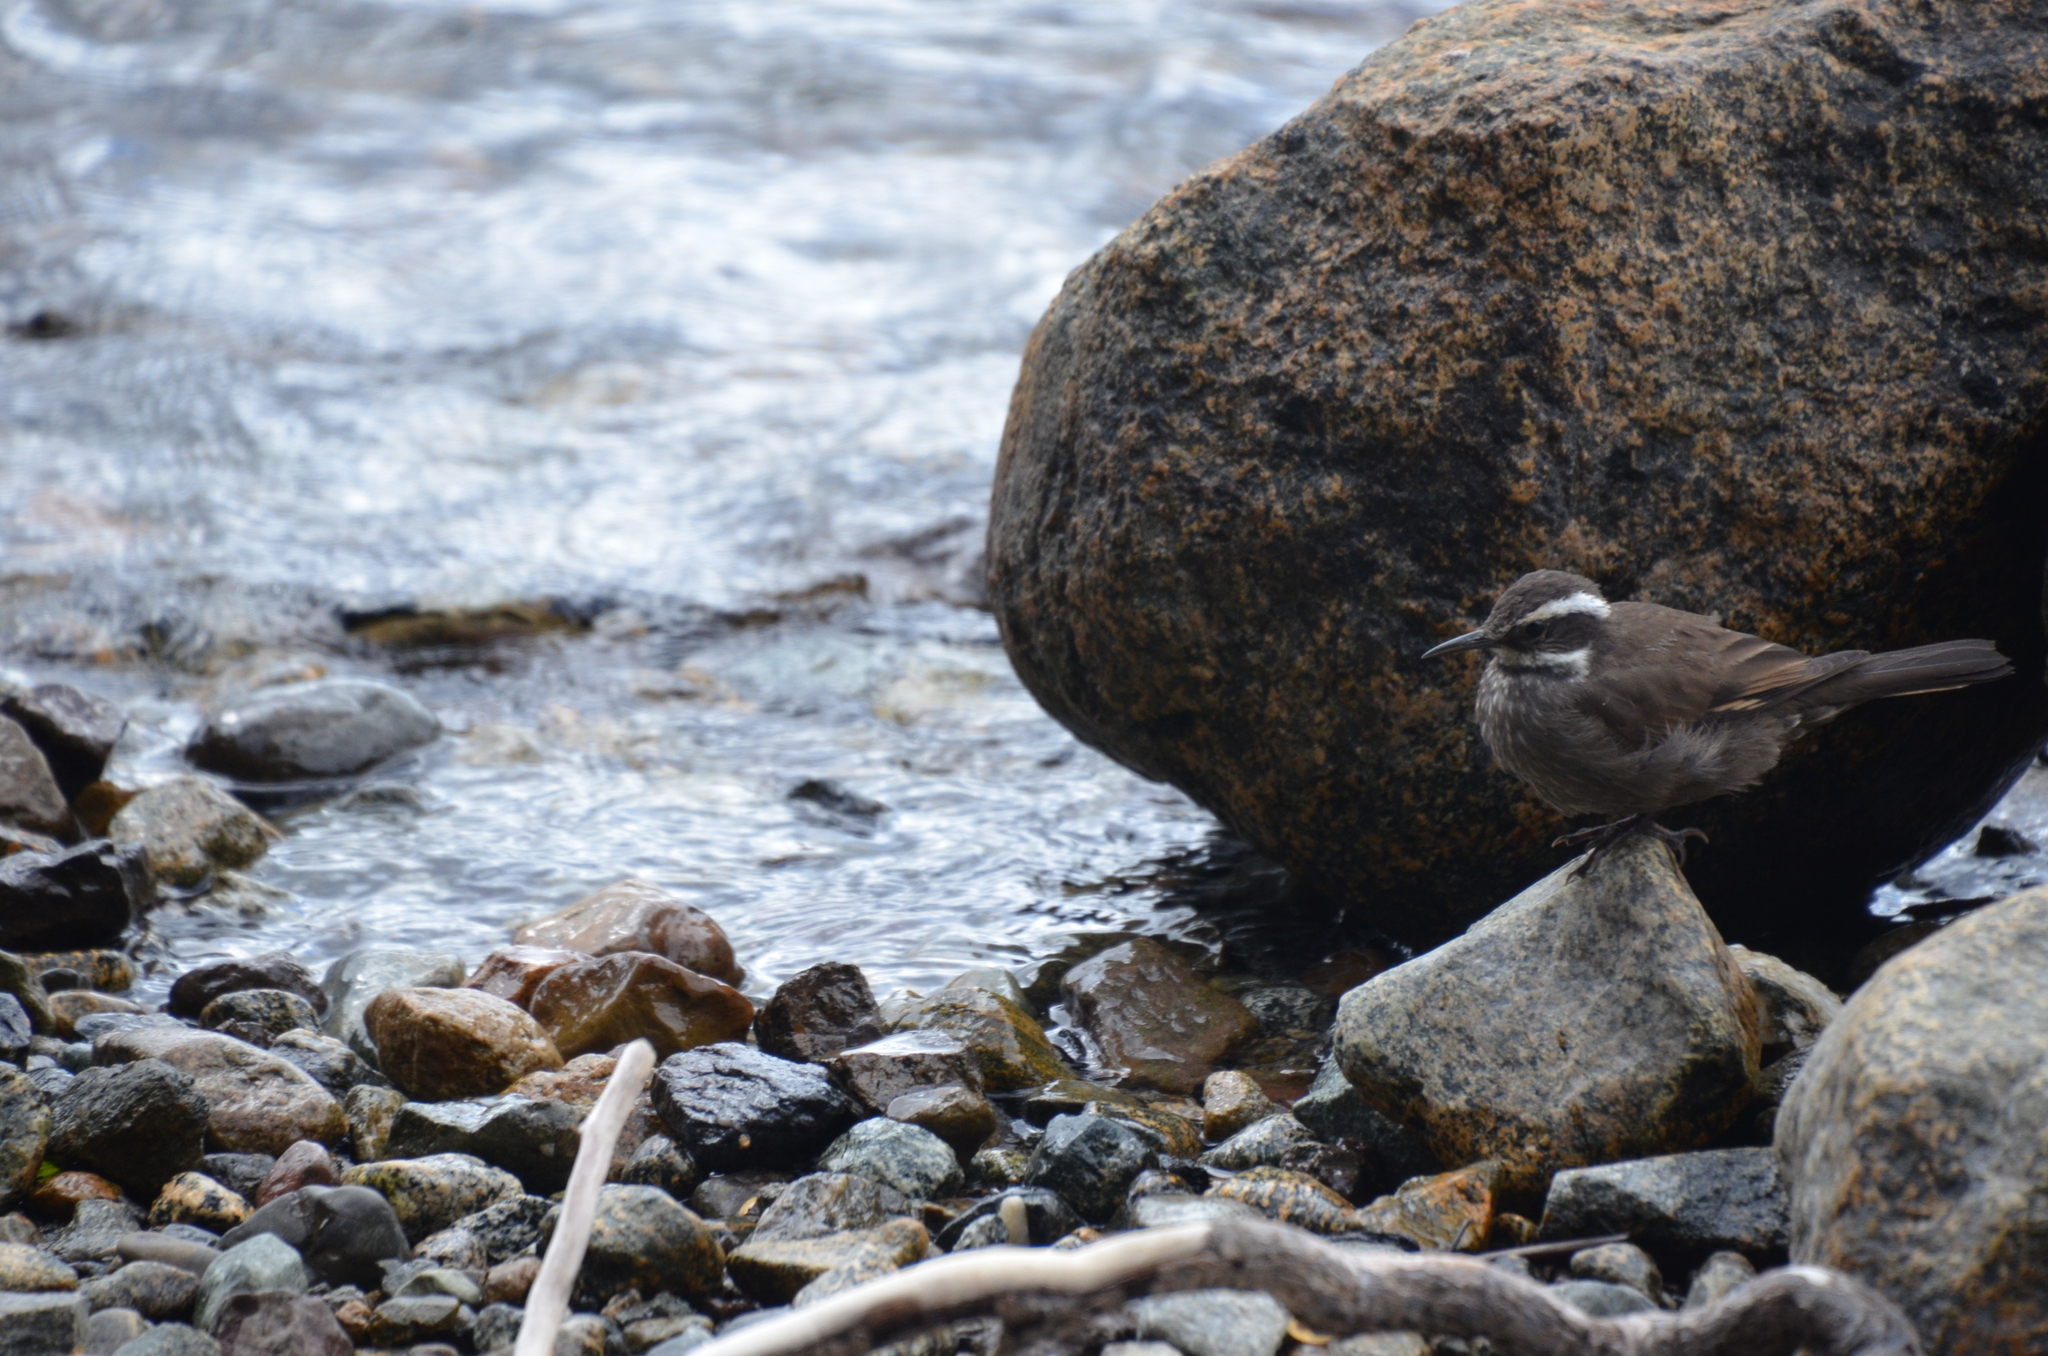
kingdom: Animalia
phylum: Chordata
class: Aves
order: Passeriformes
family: Furnariidae
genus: Cinclodes
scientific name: Cinclodes patagonicus
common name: Dark-bellied cinclodes
